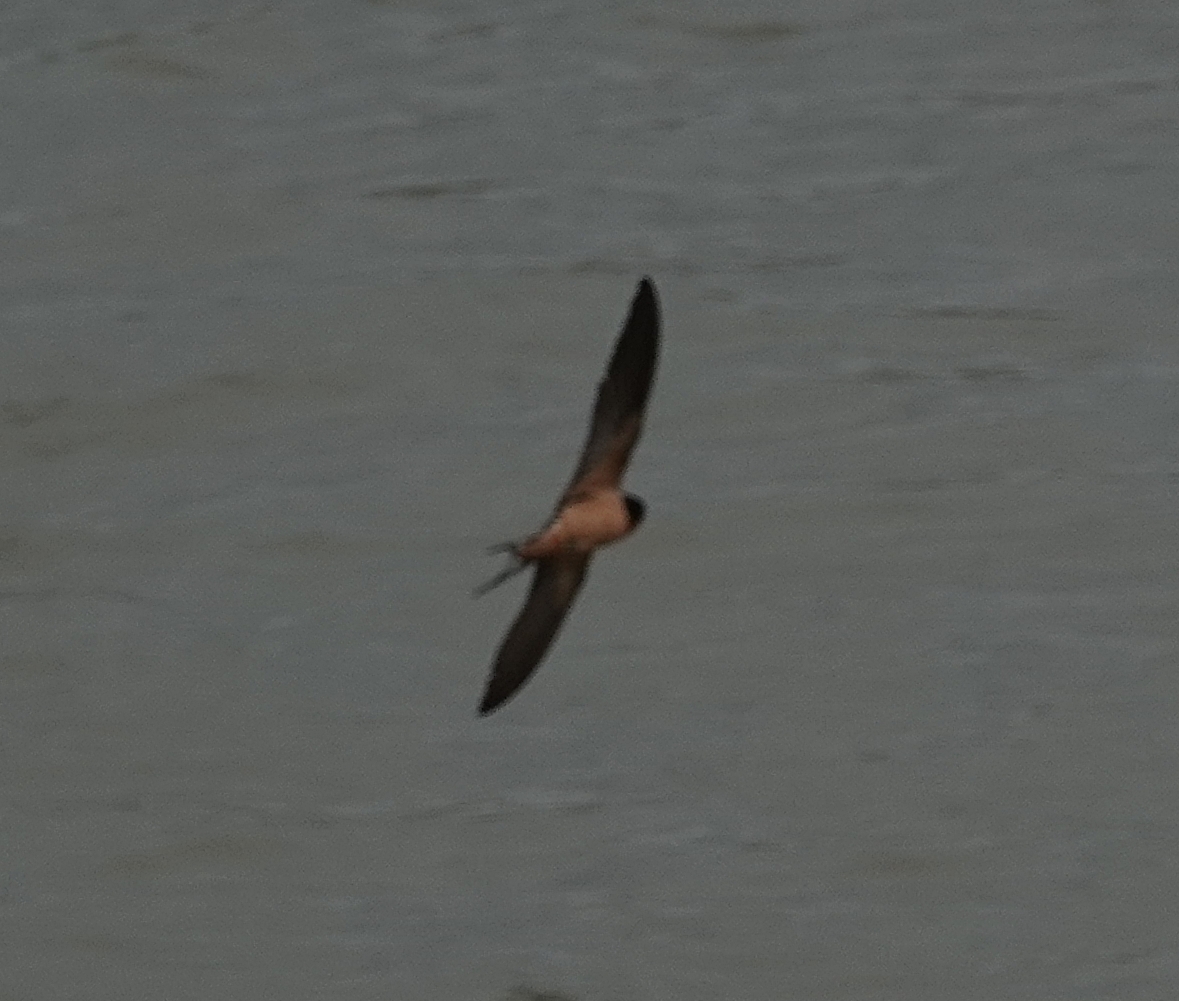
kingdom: Animalia
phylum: Chordata
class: Aves
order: Passeriformes
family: Hirundinidae
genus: Hirundo
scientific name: Hirundo rustica
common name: Barn swallow
